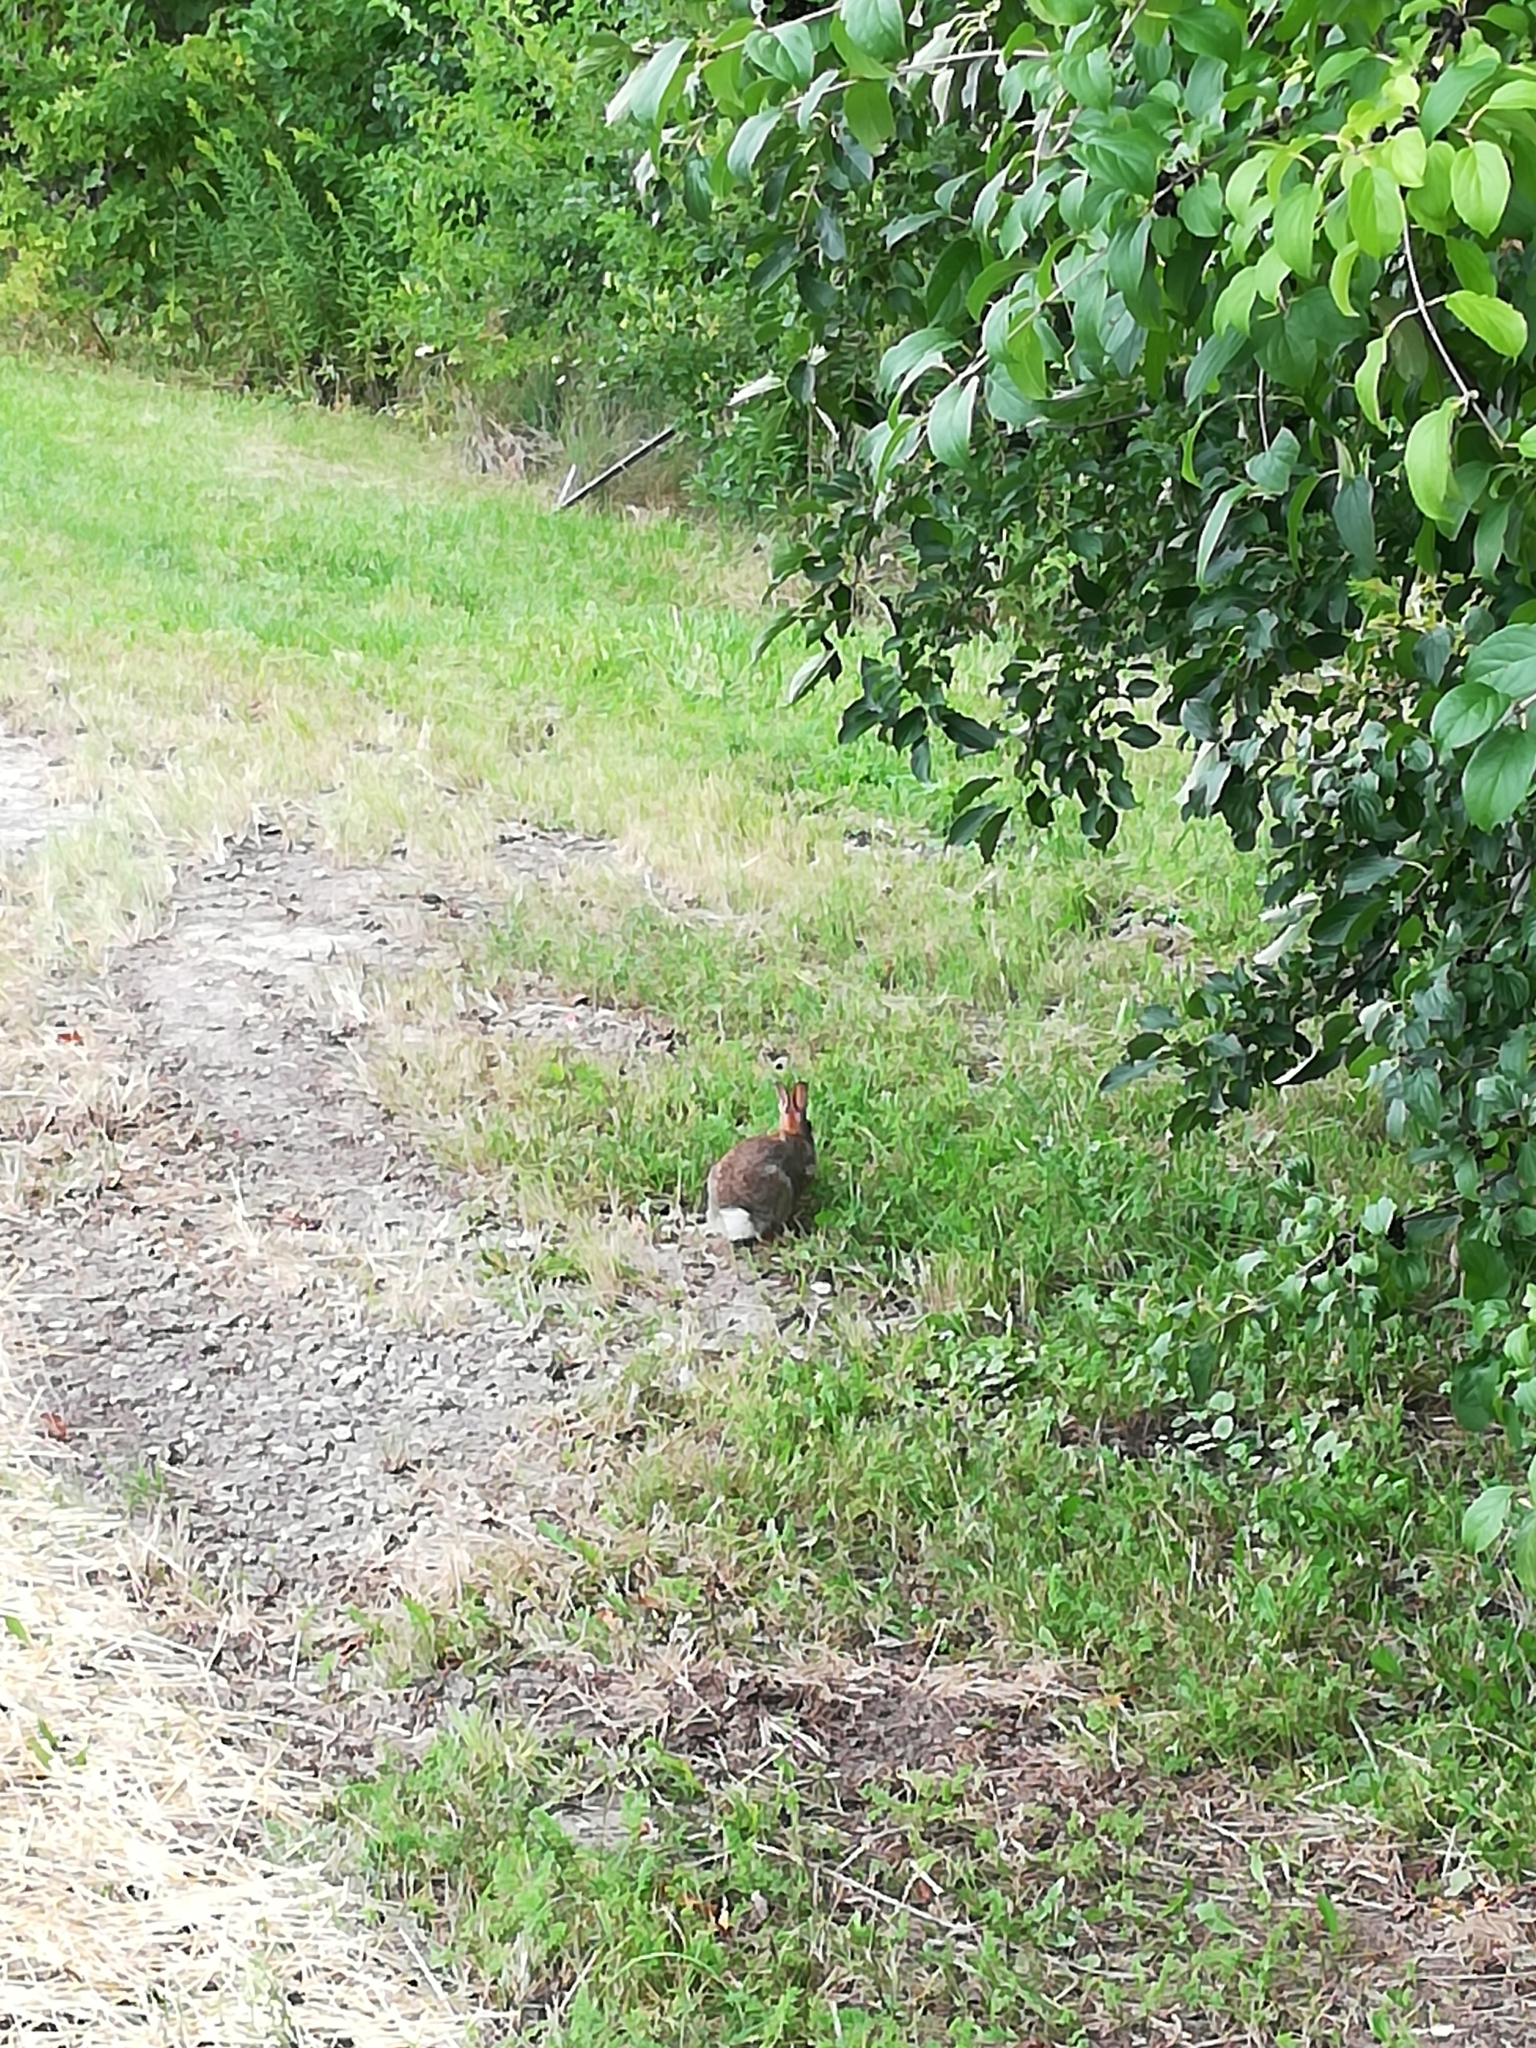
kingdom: Animalia
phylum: Chordata
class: Mammalia
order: Lagomorpha
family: Leporidae
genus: Sylvilagus
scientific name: Sylvilagus floridanus
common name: Eastern cottontail
